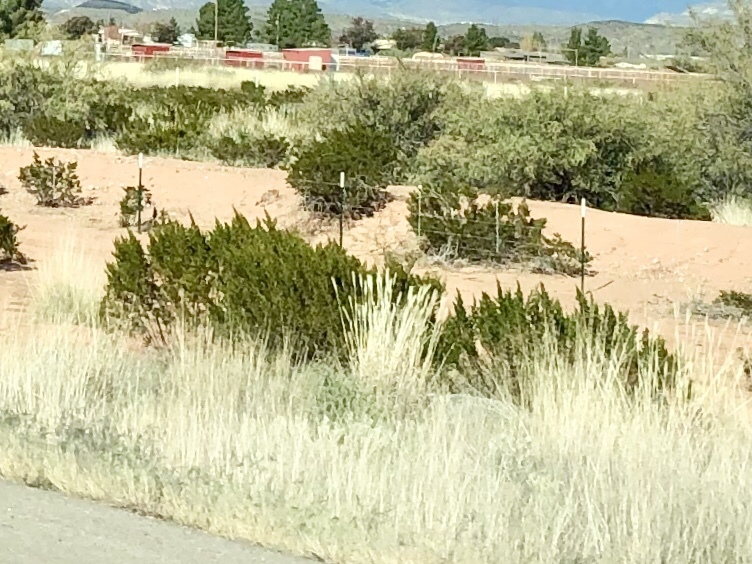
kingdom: Plantae
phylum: Tracheophyta
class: Magnoliopsida
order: Zygophyllales
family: Zygophyllaceae
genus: Larrea
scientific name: Larrea tridentata
